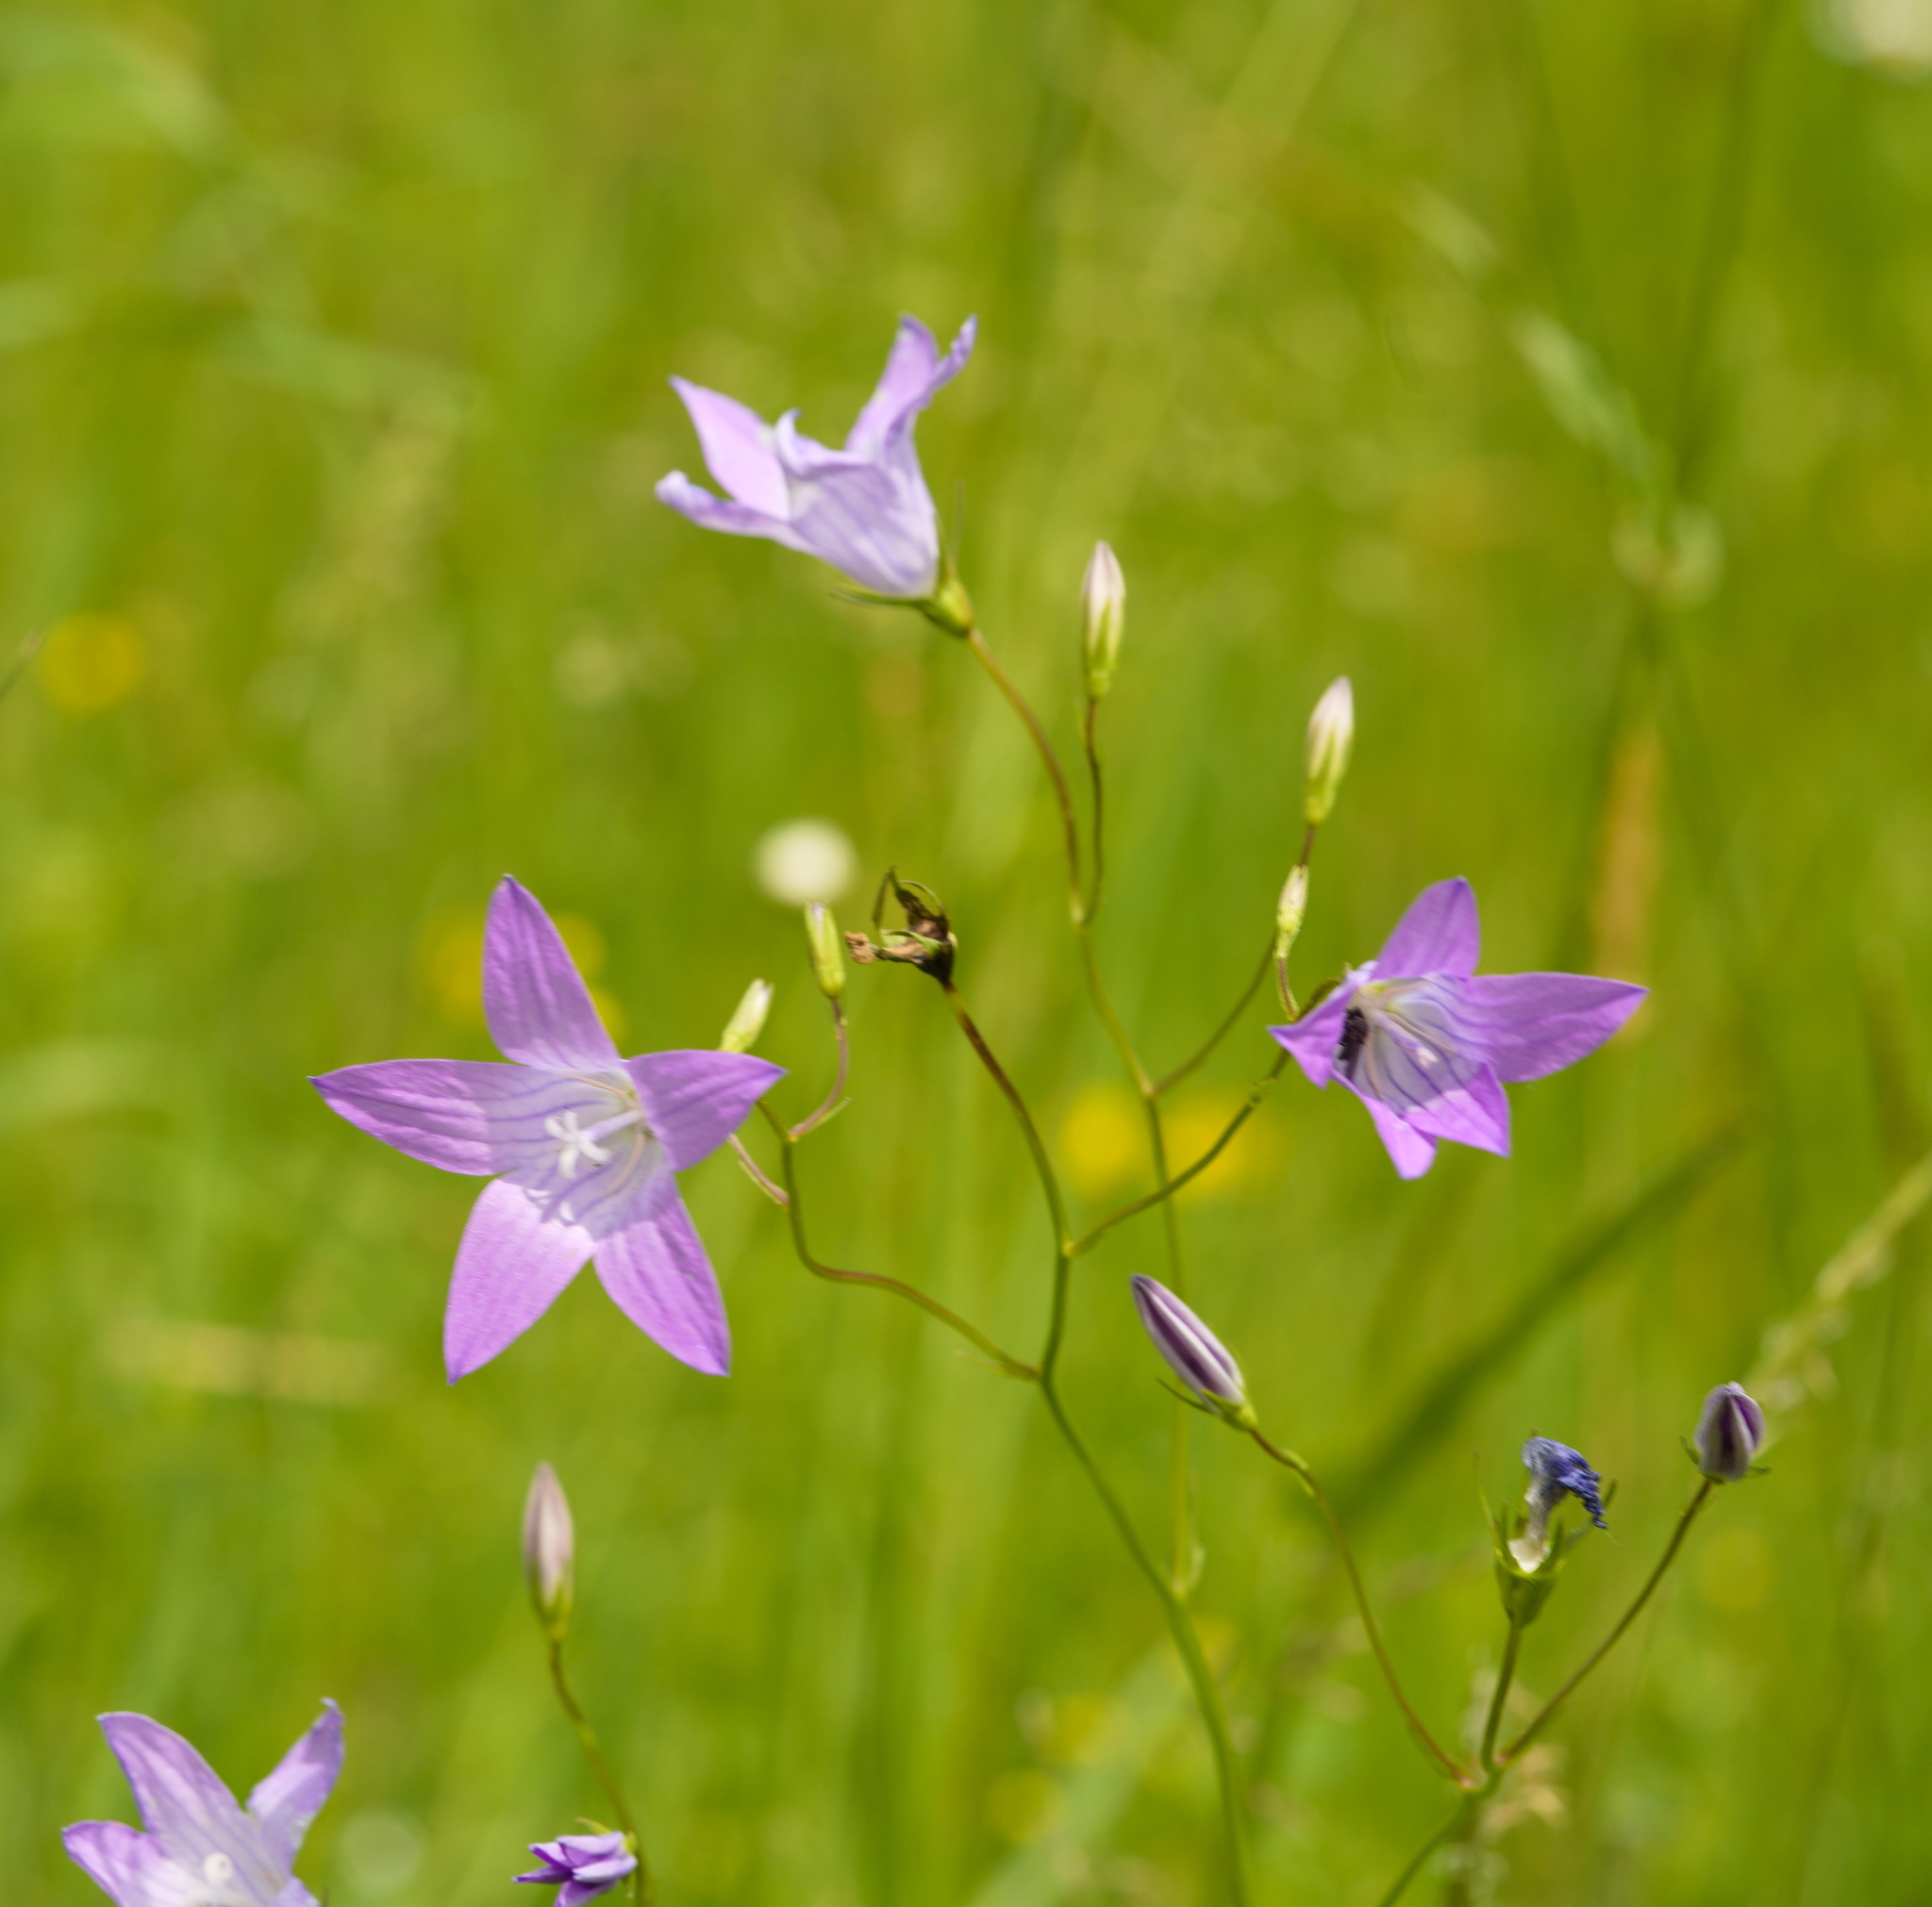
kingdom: Plantae
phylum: Tracheophyta
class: Magnoliopsida
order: Asterales
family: Campanulaceae
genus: Campanula
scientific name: Campanula patula
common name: Spreading bellflower
